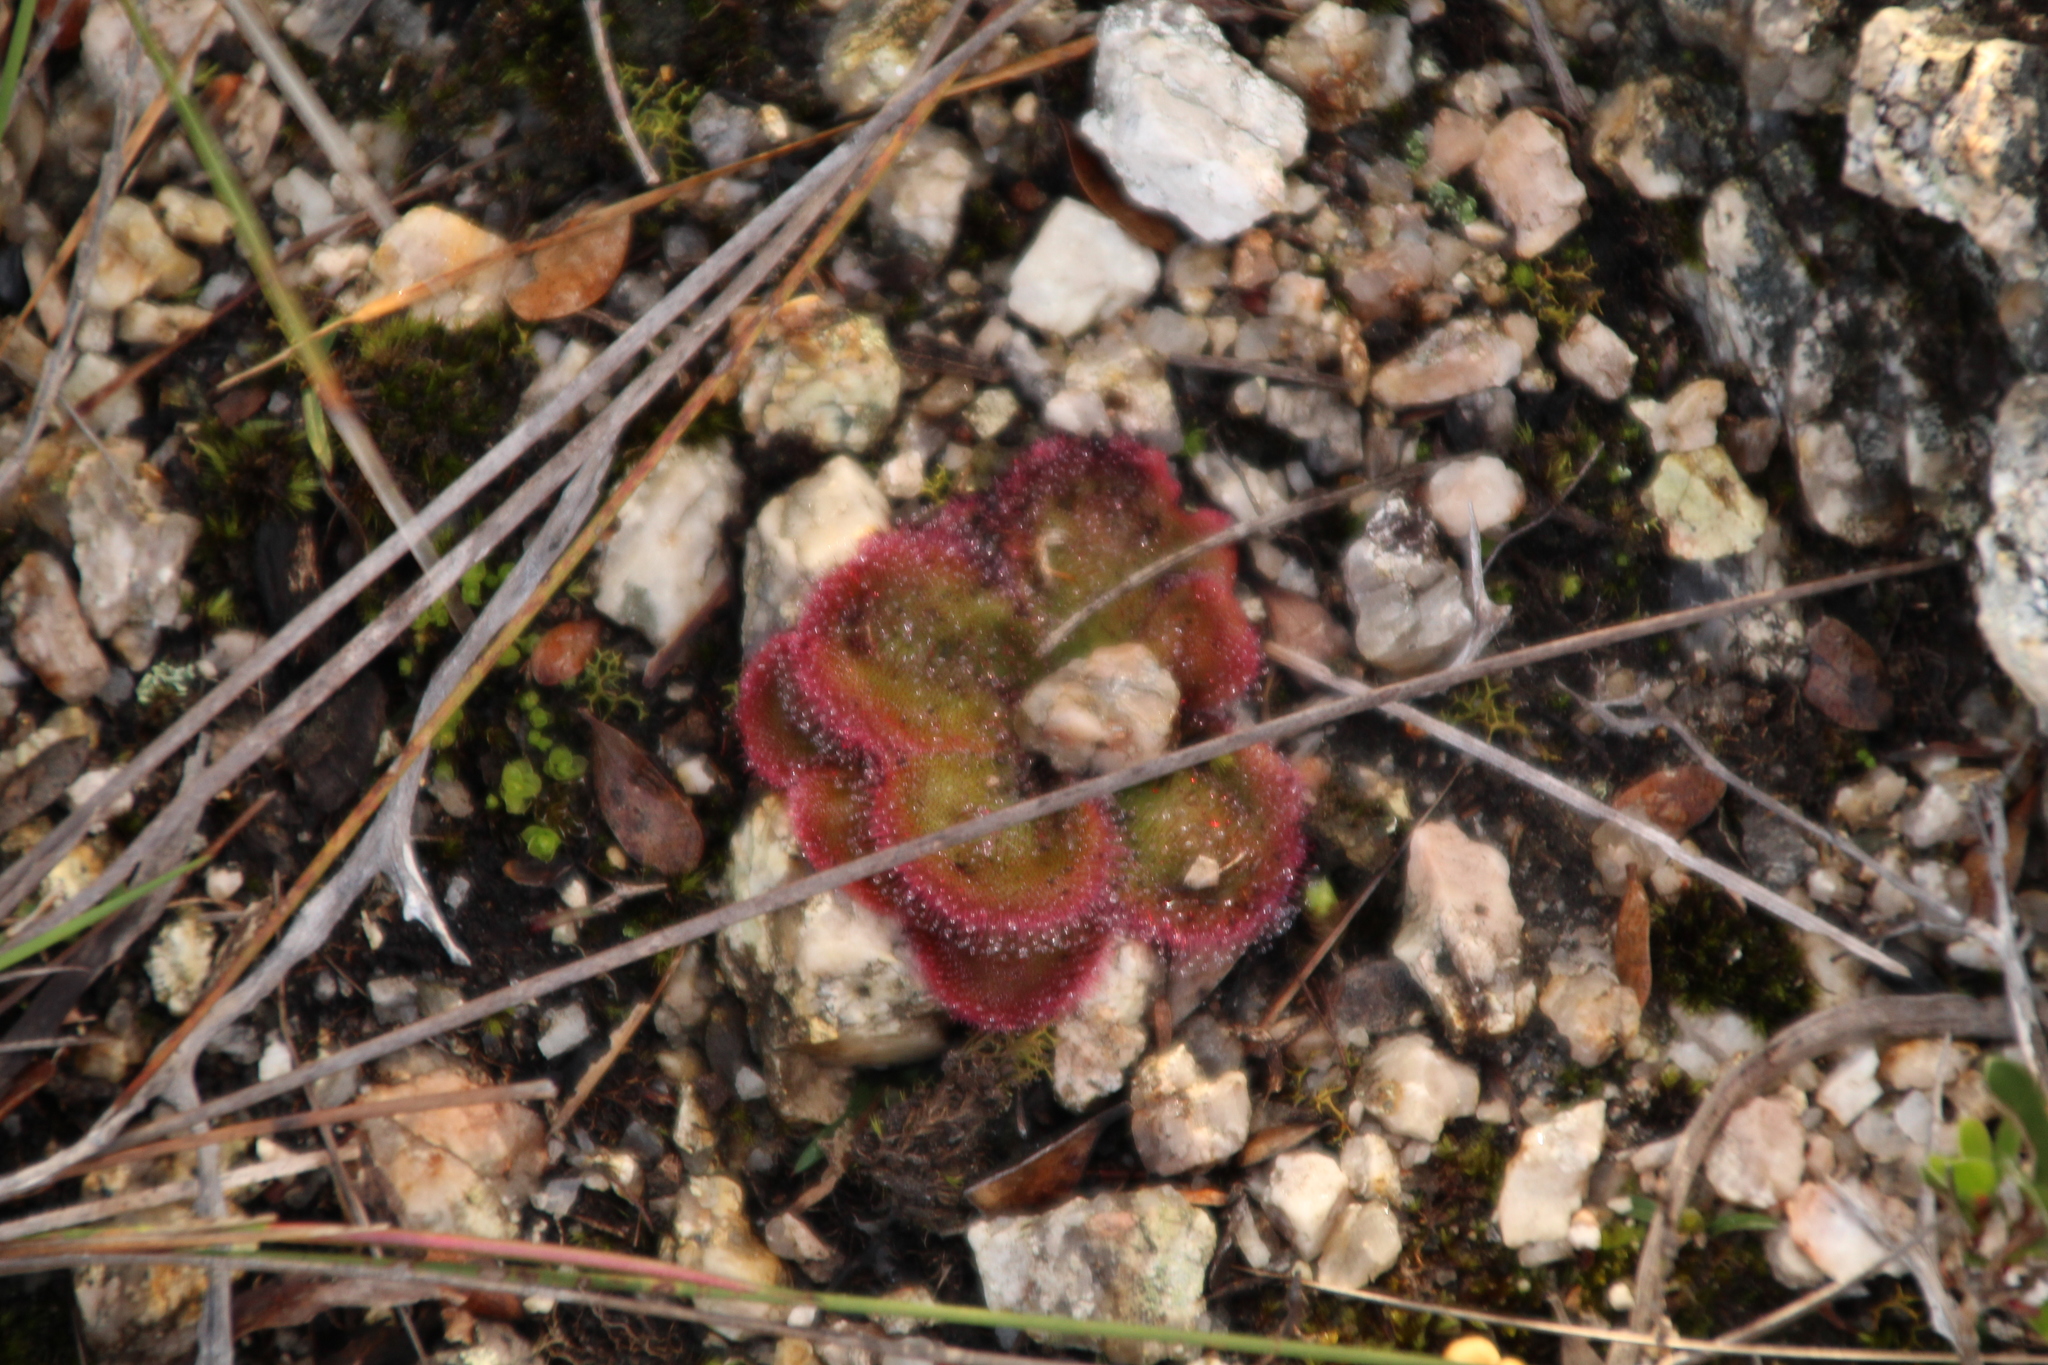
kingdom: Plantae
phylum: Tracheophyta
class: Magnoliopsida
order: Caryophyllales
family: Droseraceae
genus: Drosera
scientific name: Drosera erythrorhiza
